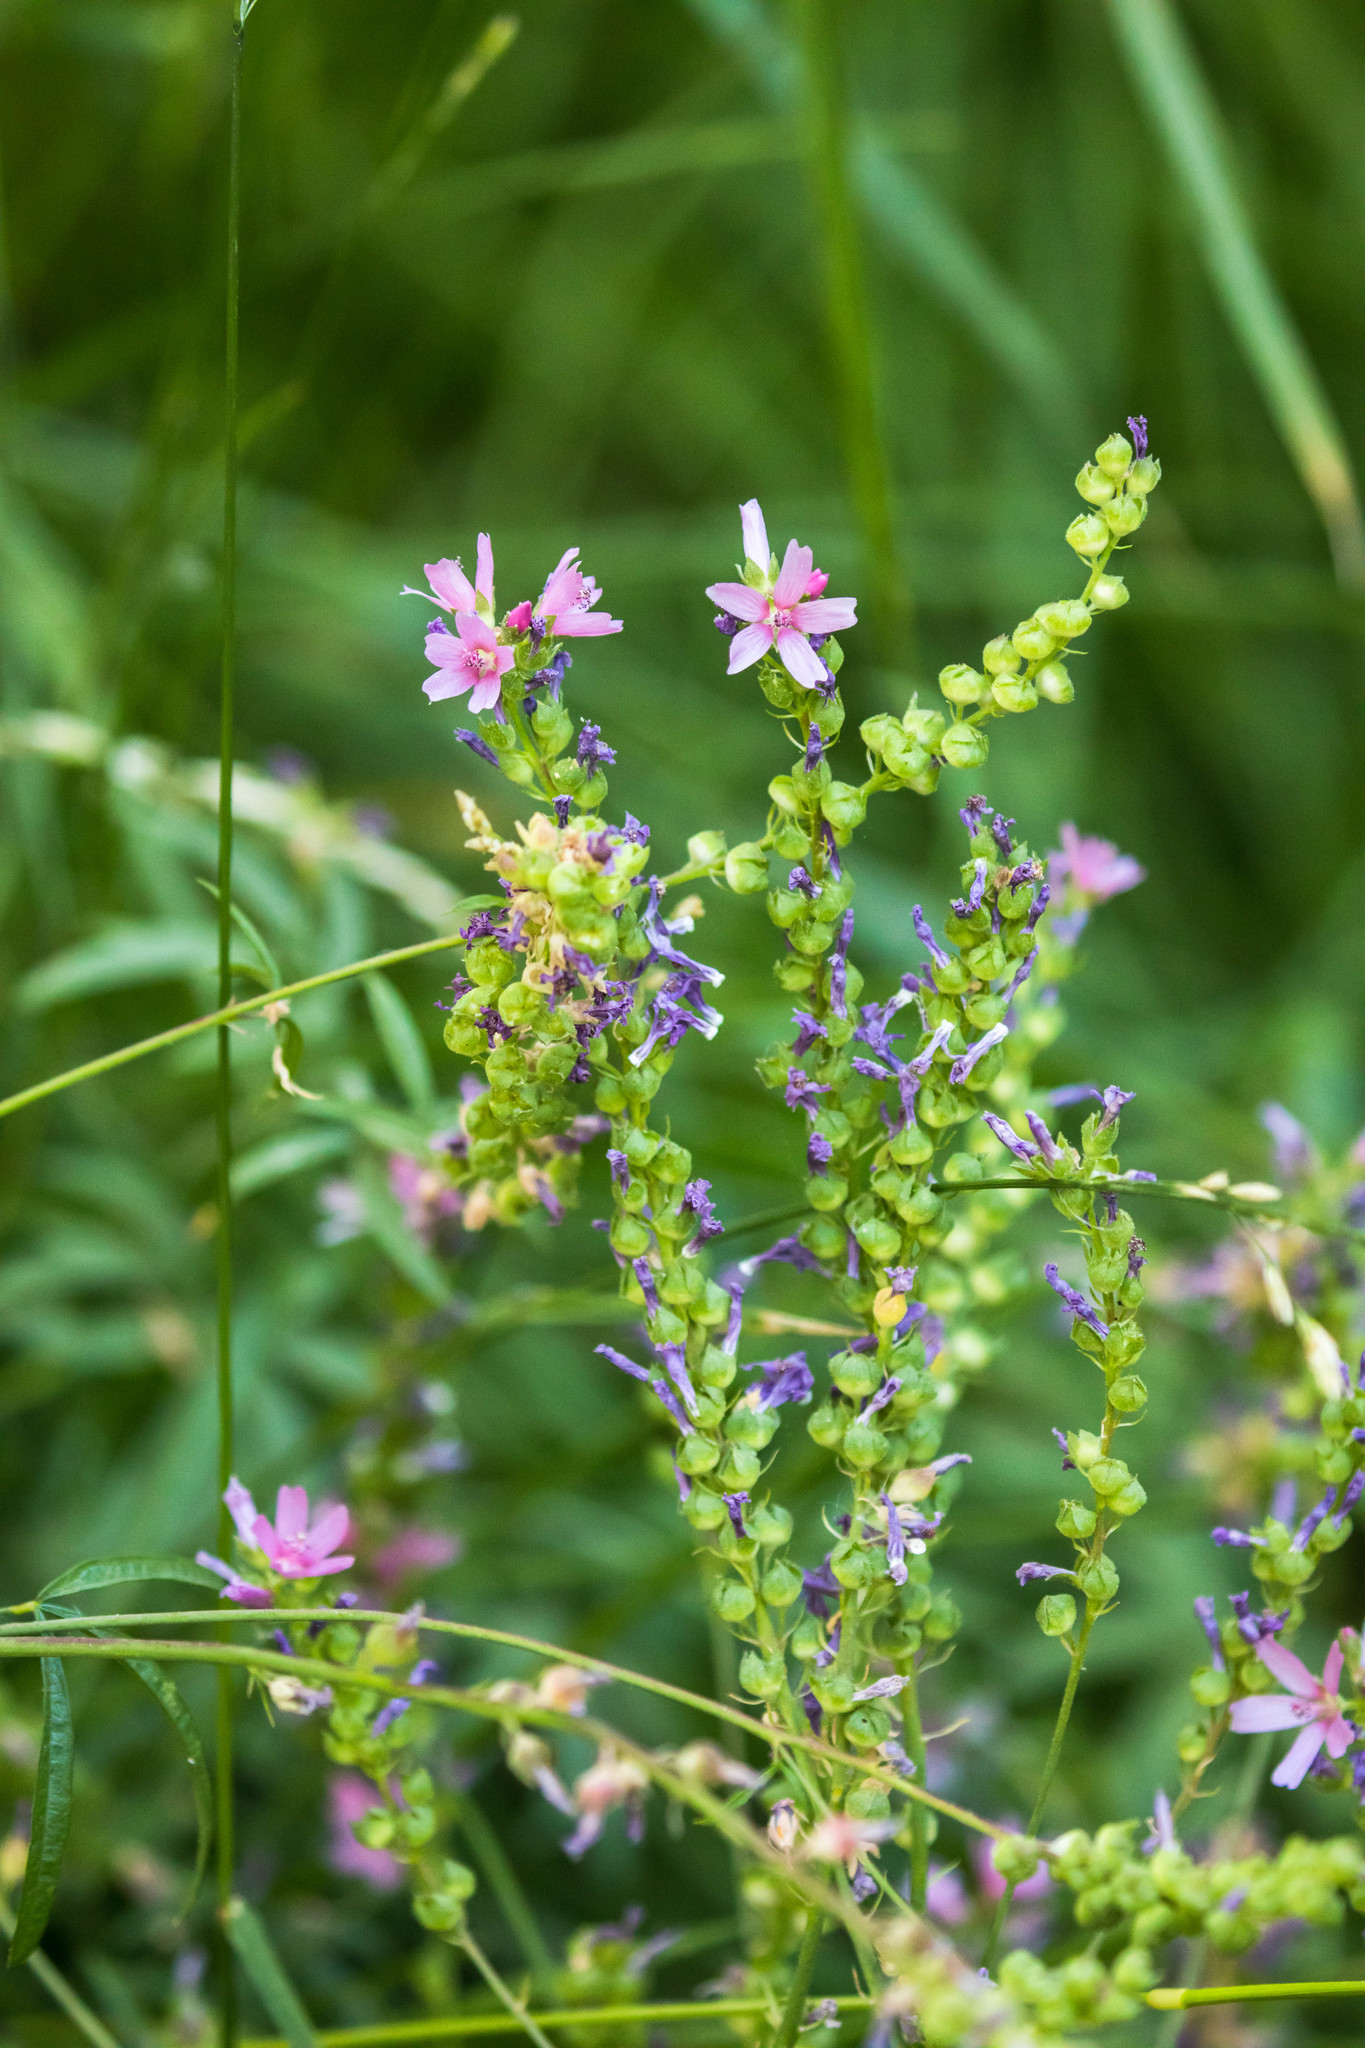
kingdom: Plantae
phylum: Tracheophyta
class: Magnoliopsida
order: Malvales
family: Malvaceae
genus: Sidalcea
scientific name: Sidalcea oregana
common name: Oregon checker-mallow
